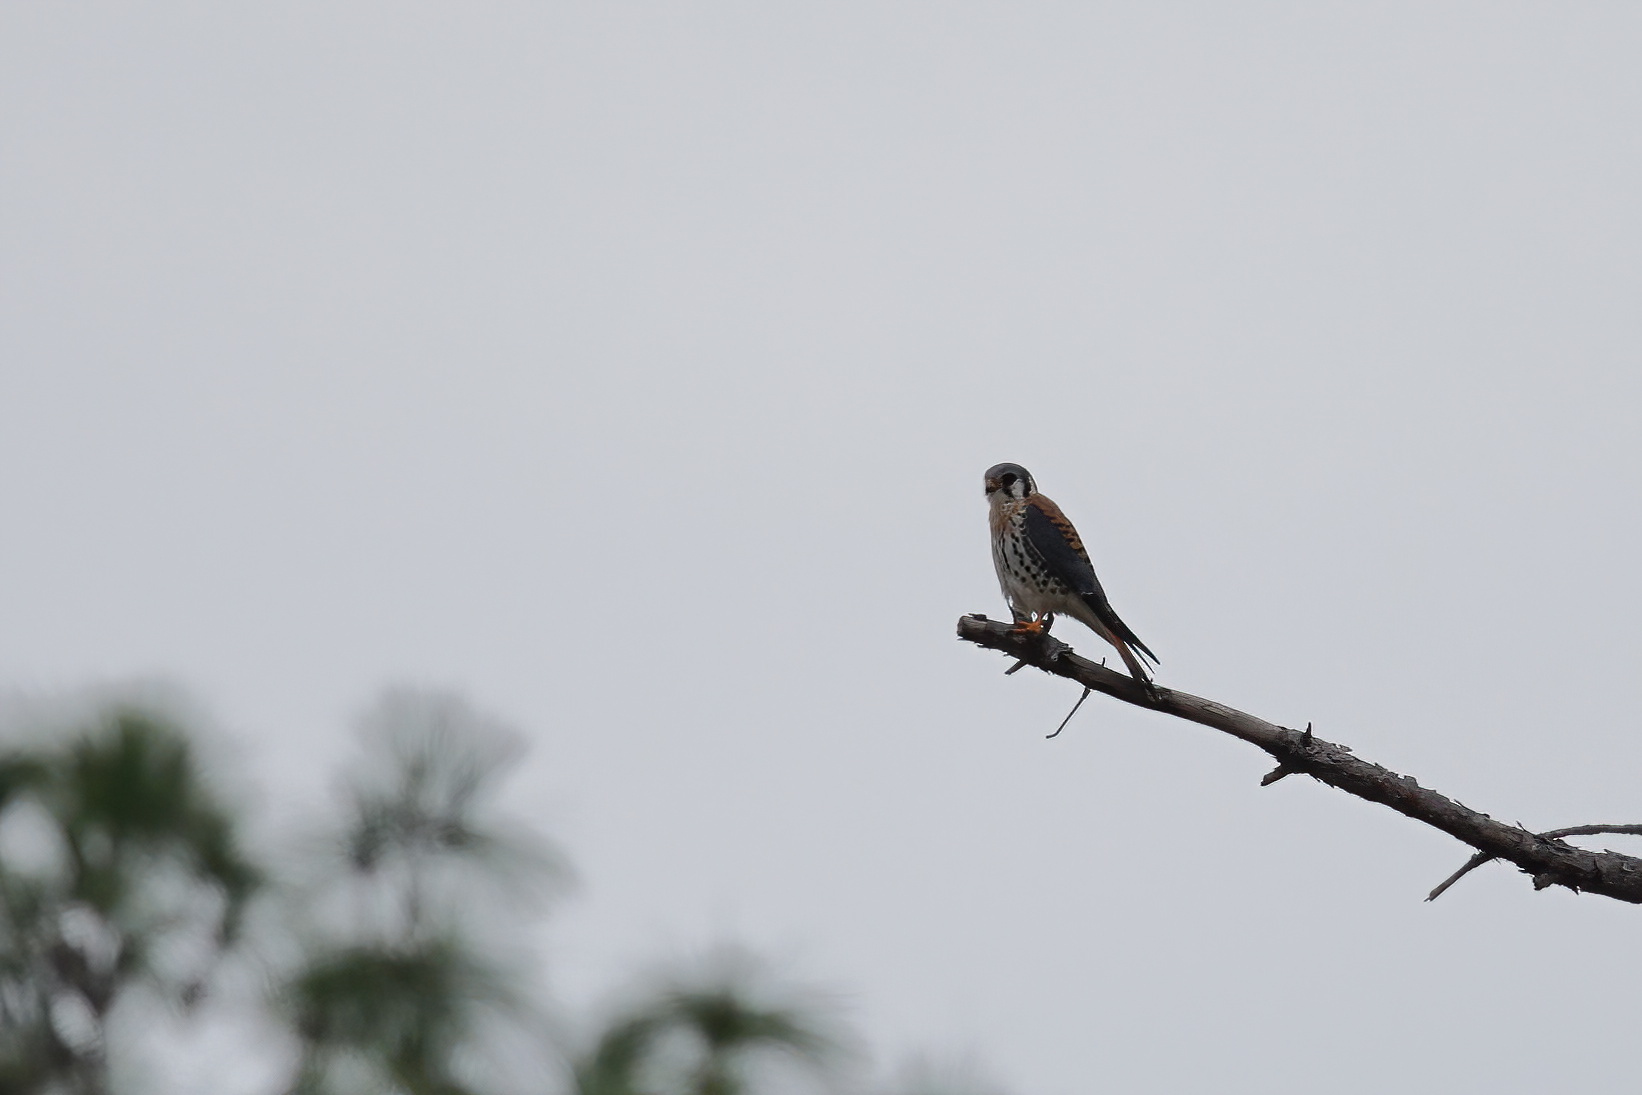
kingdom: Animalia
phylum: Chordata
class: Aves
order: Falconiformes
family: Falconidae
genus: Falco
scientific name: Falco sparverius
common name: American kestrel
